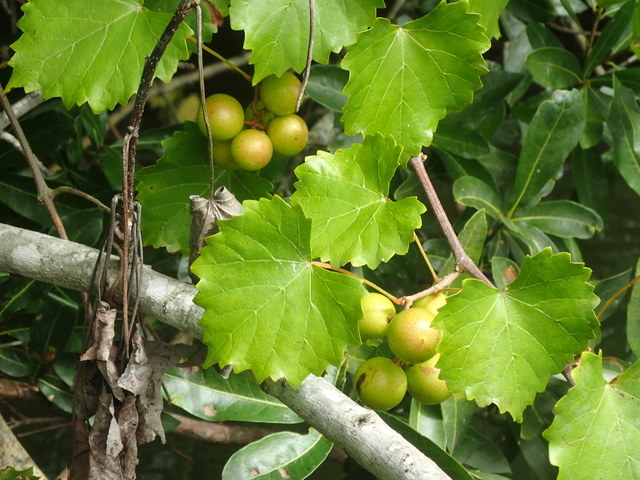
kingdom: Plantae
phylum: Tracheophyta
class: Magnoliopsida
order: Vitales
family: Vitaceae
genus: Vitis
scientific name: Vitis rotundifolia
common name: Muscadine grape
